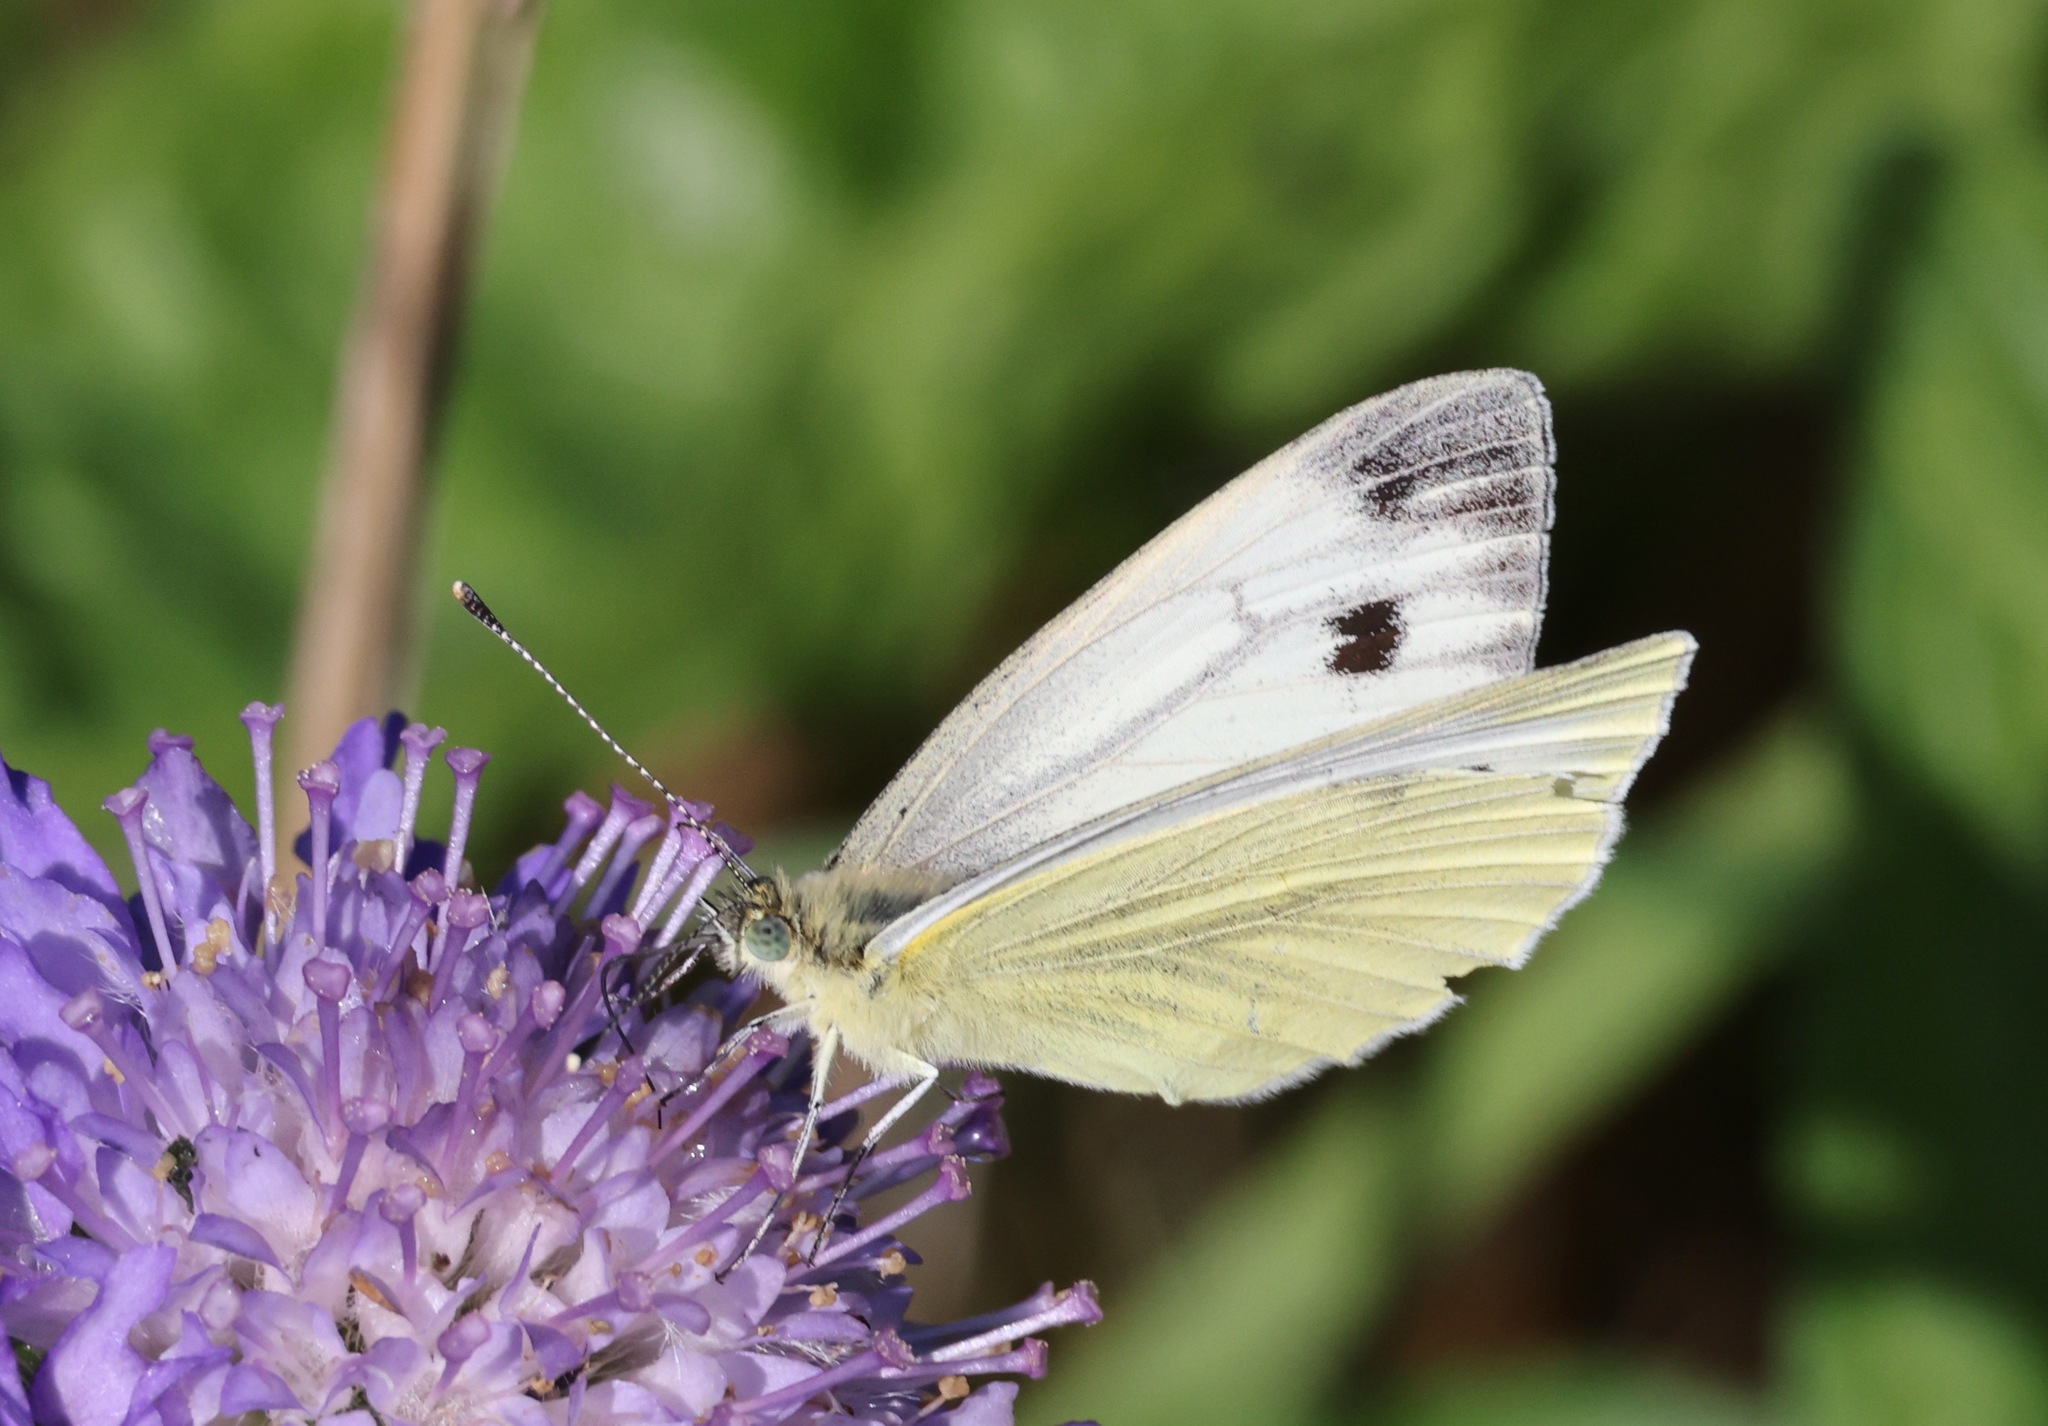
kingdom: Animalia
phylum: Arthropoda
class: Insecta
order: Lepidoptera
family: Pieridae
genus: Pieris
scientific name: Pieris napi
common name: Green-veined white
